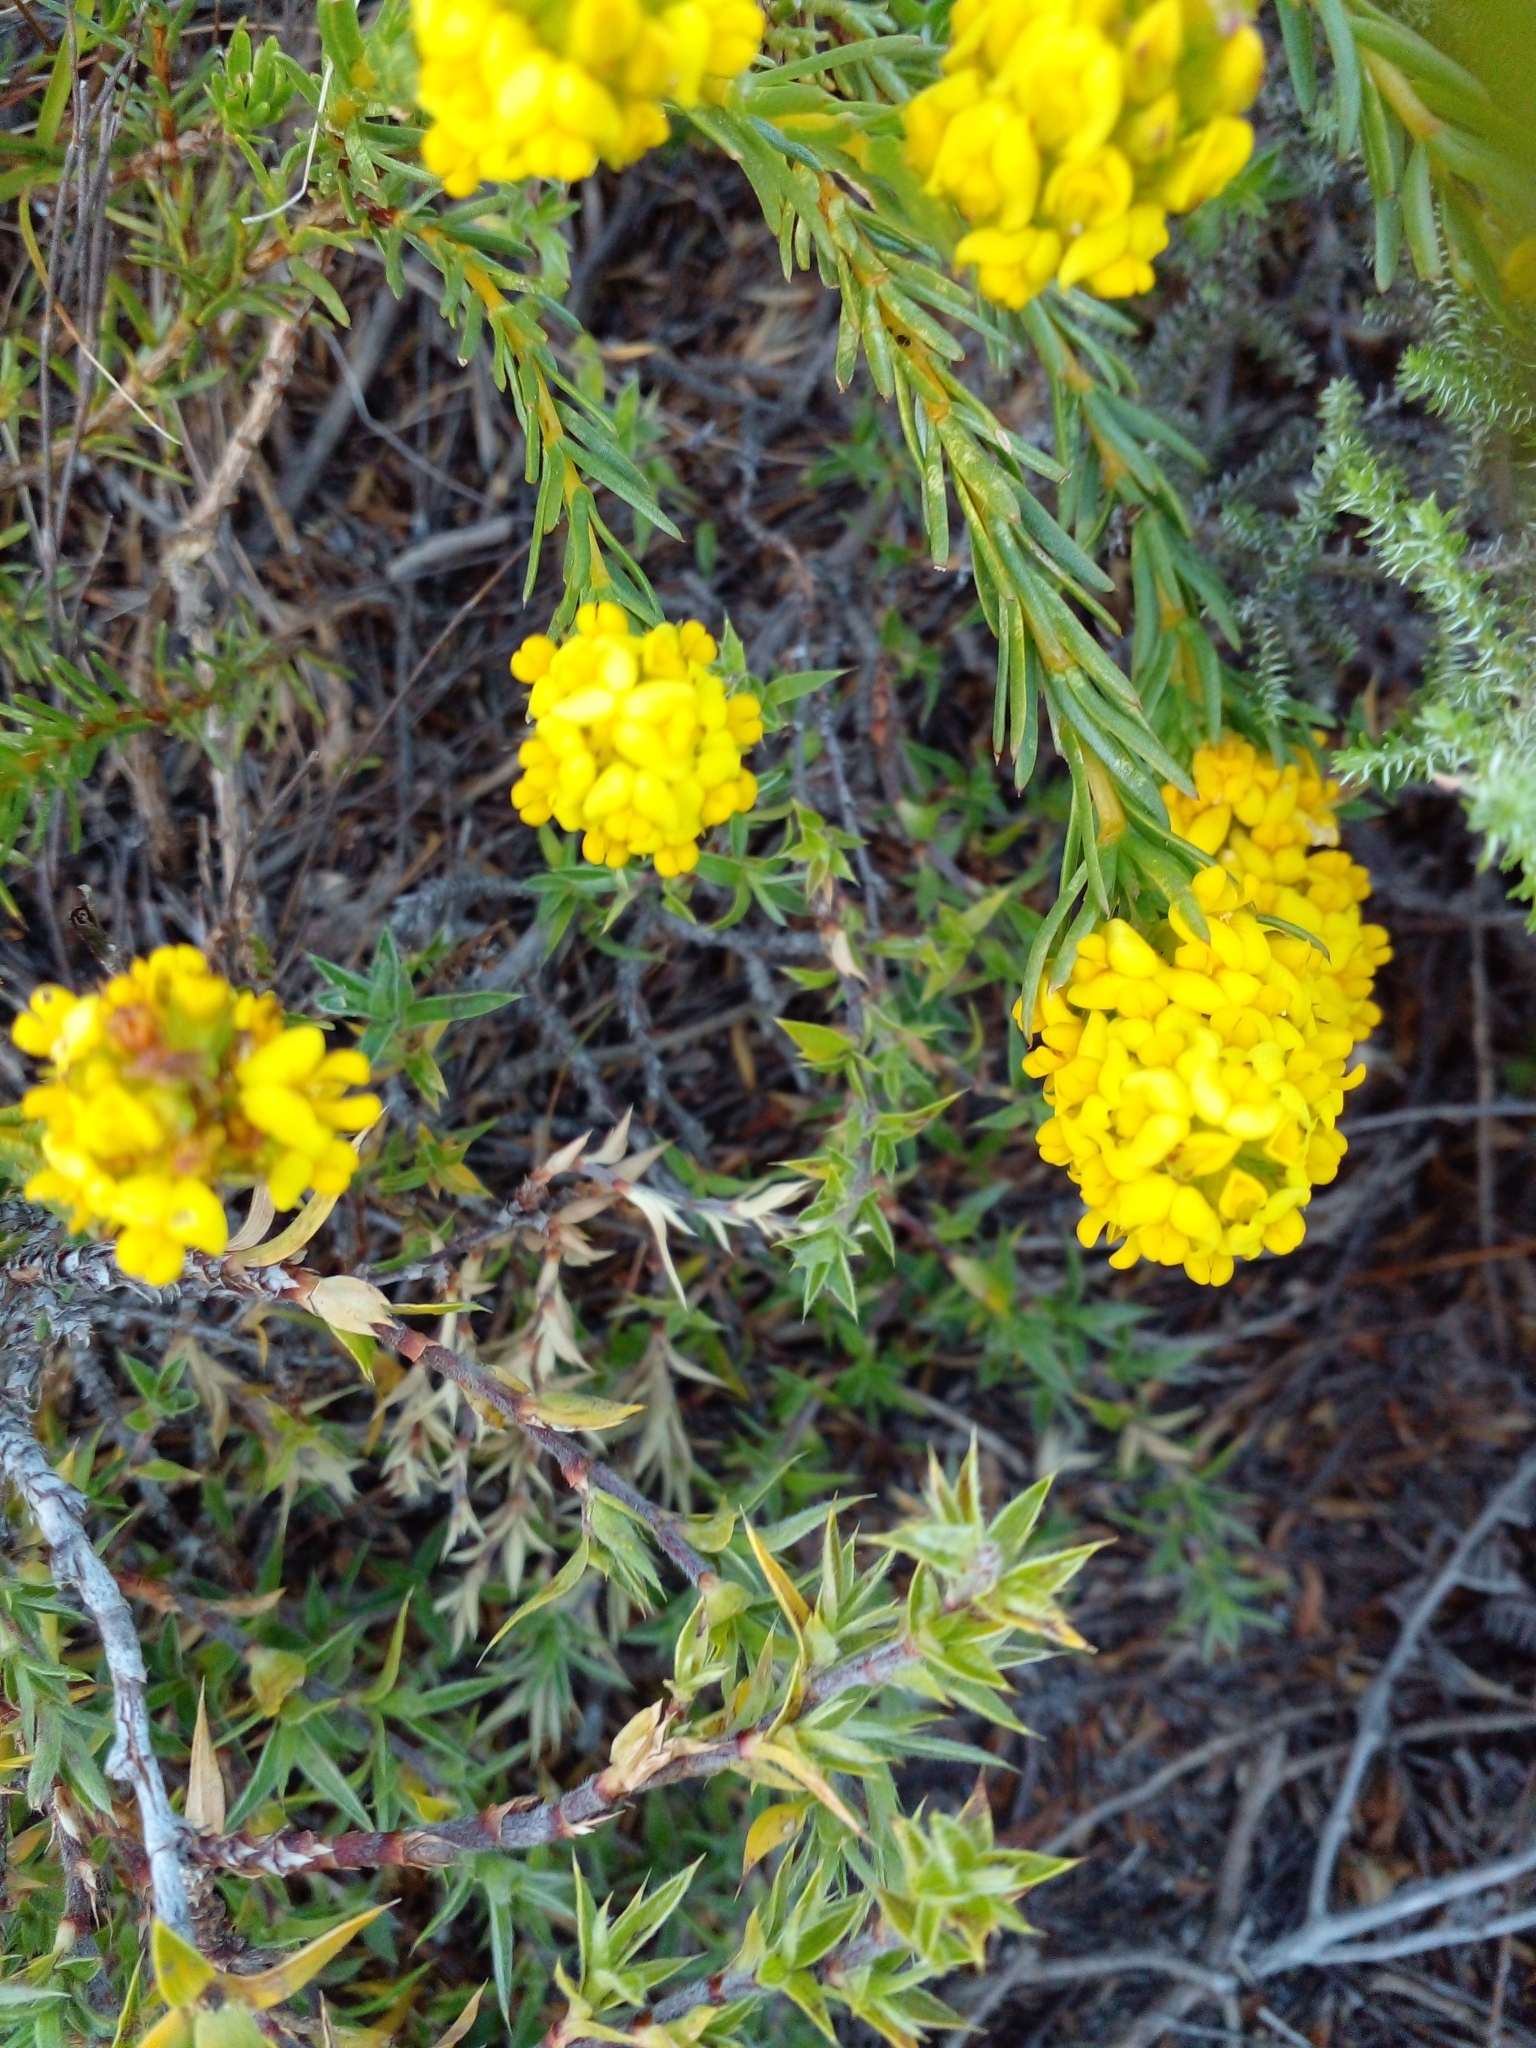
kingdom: Plantae
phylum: Tracheophyta
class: Magnoliopsida
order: Fabales
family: Fabaceae
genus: Aspalathus
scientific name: Aspalathus callosa
